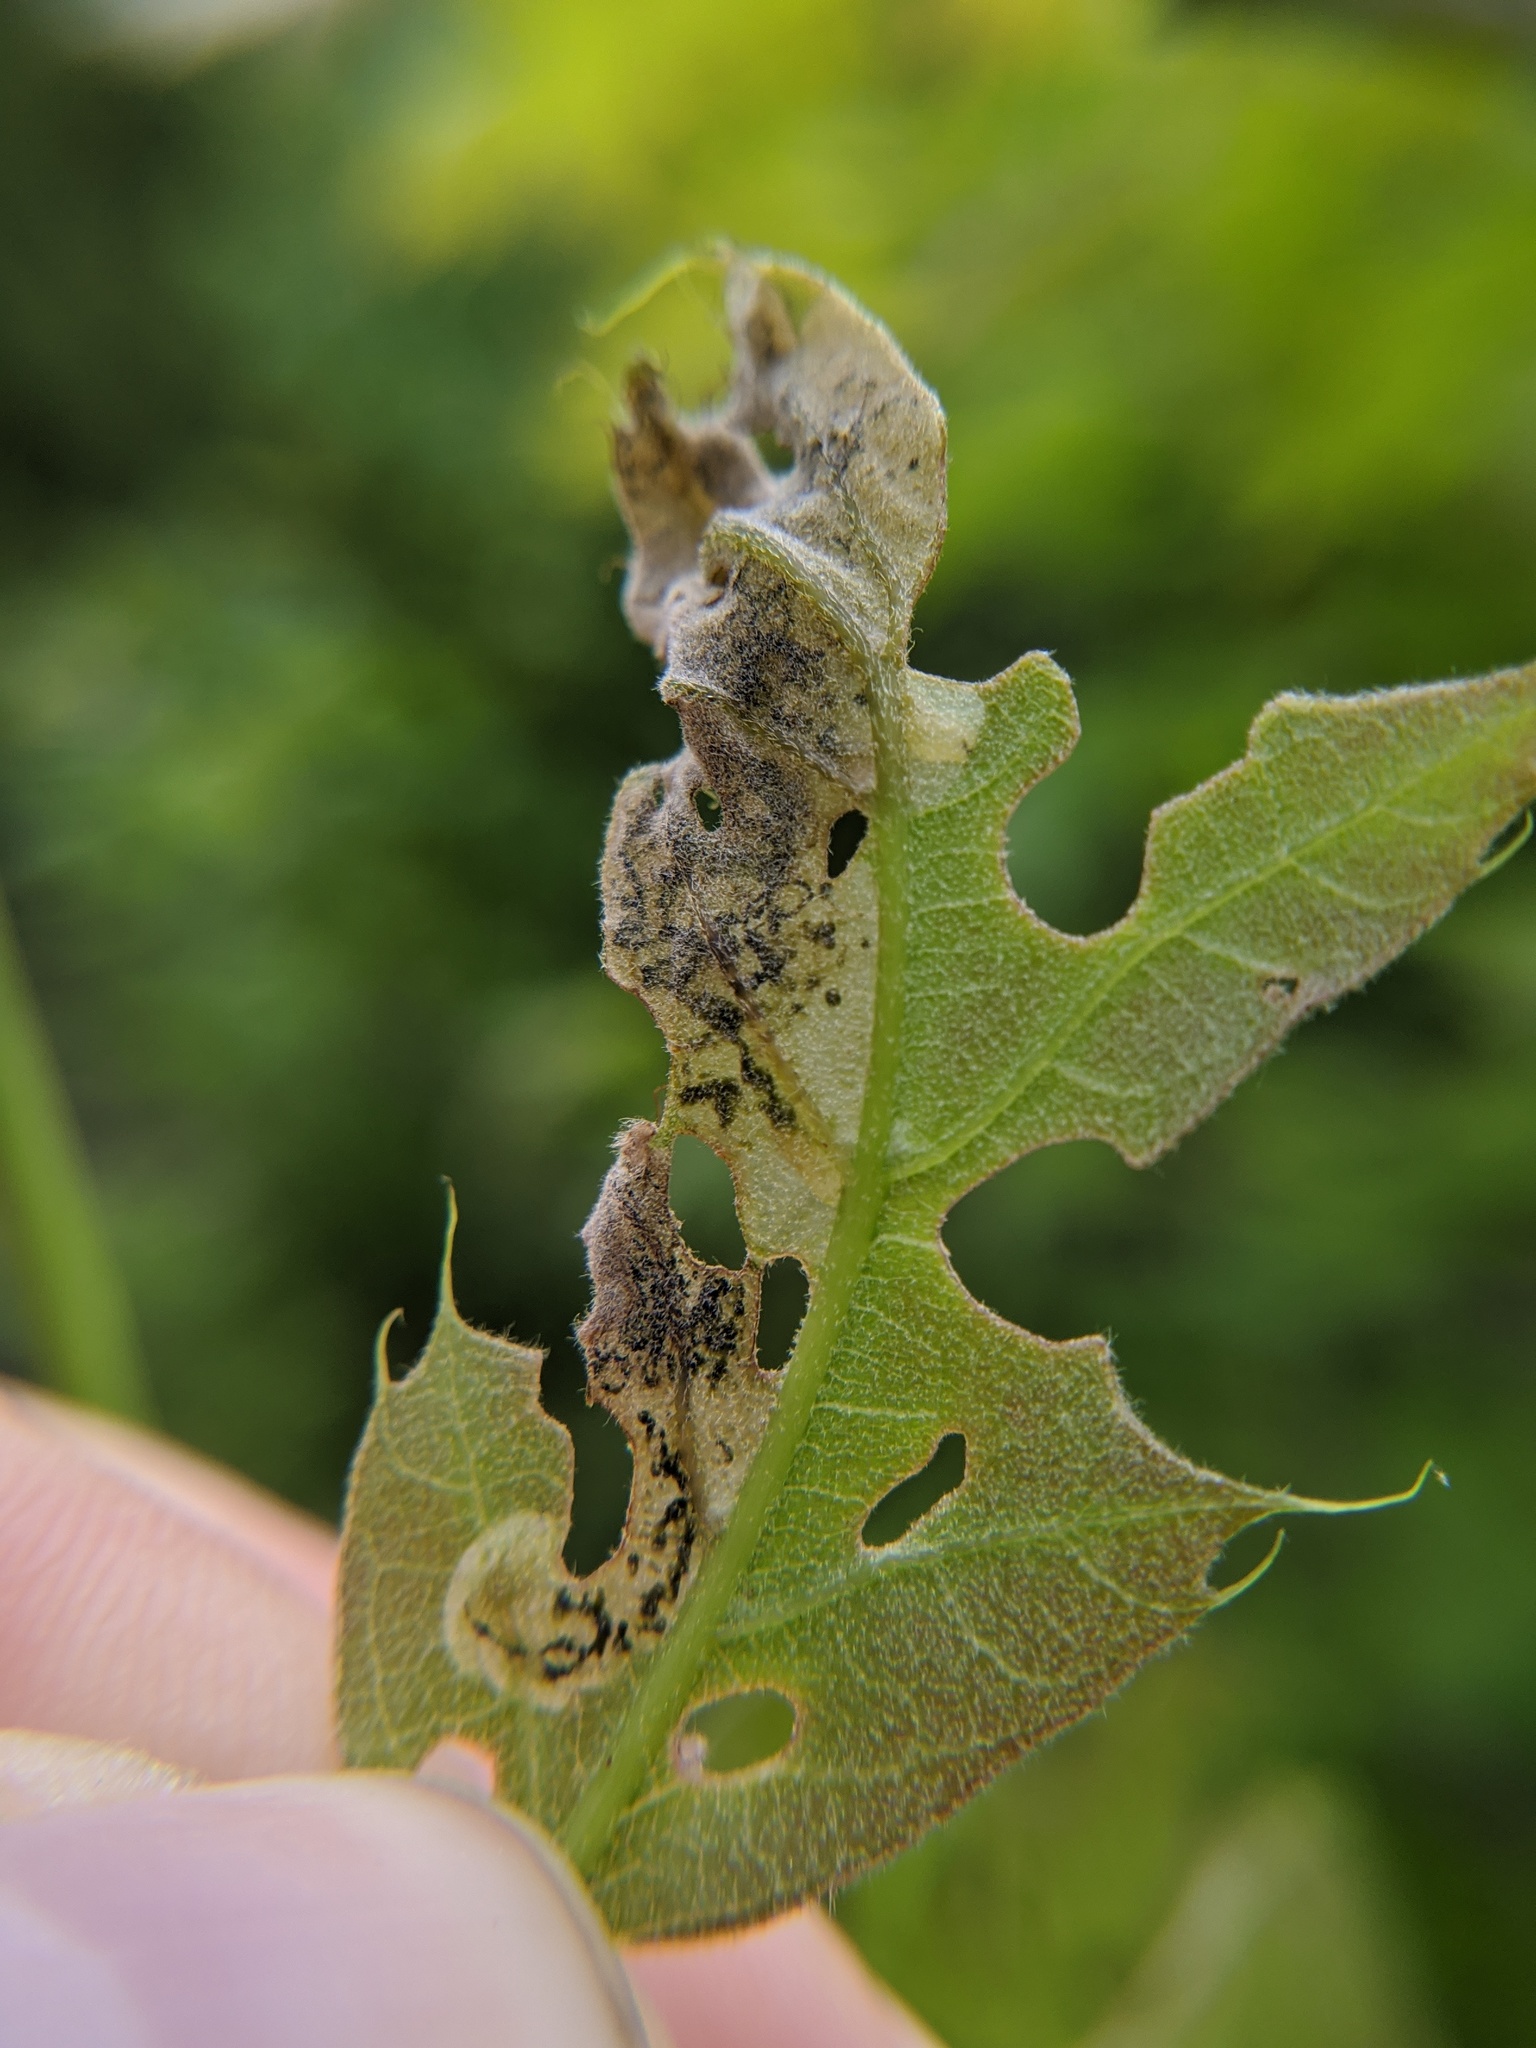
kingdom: Animalia
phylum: Arthropoda
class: Insecta
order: Diptera
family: Agromyzidae
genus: Japanagromyza
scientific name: Japanagromyza viridula
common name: Oak shothole leafminer
